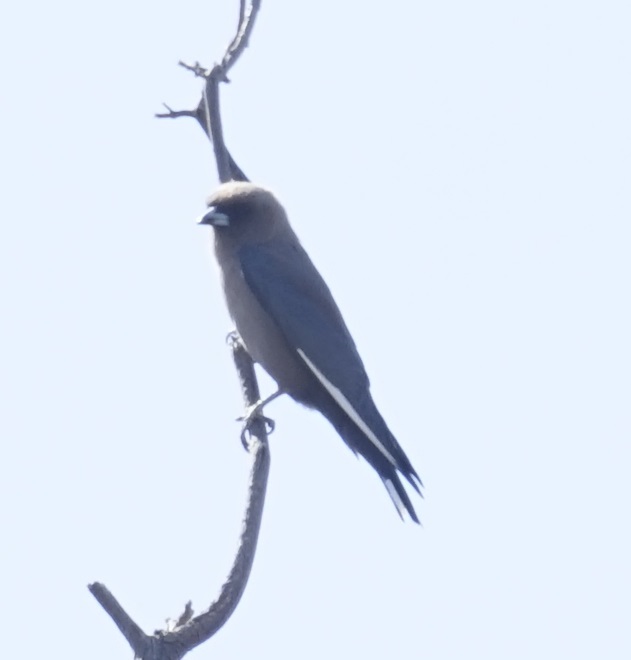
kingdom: Animalia
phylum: Chordata
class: Aves
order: Passeriformes
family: Artamidae
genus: Artamus
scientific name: Artamus cyanopterus
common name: Dusky woodswallow
